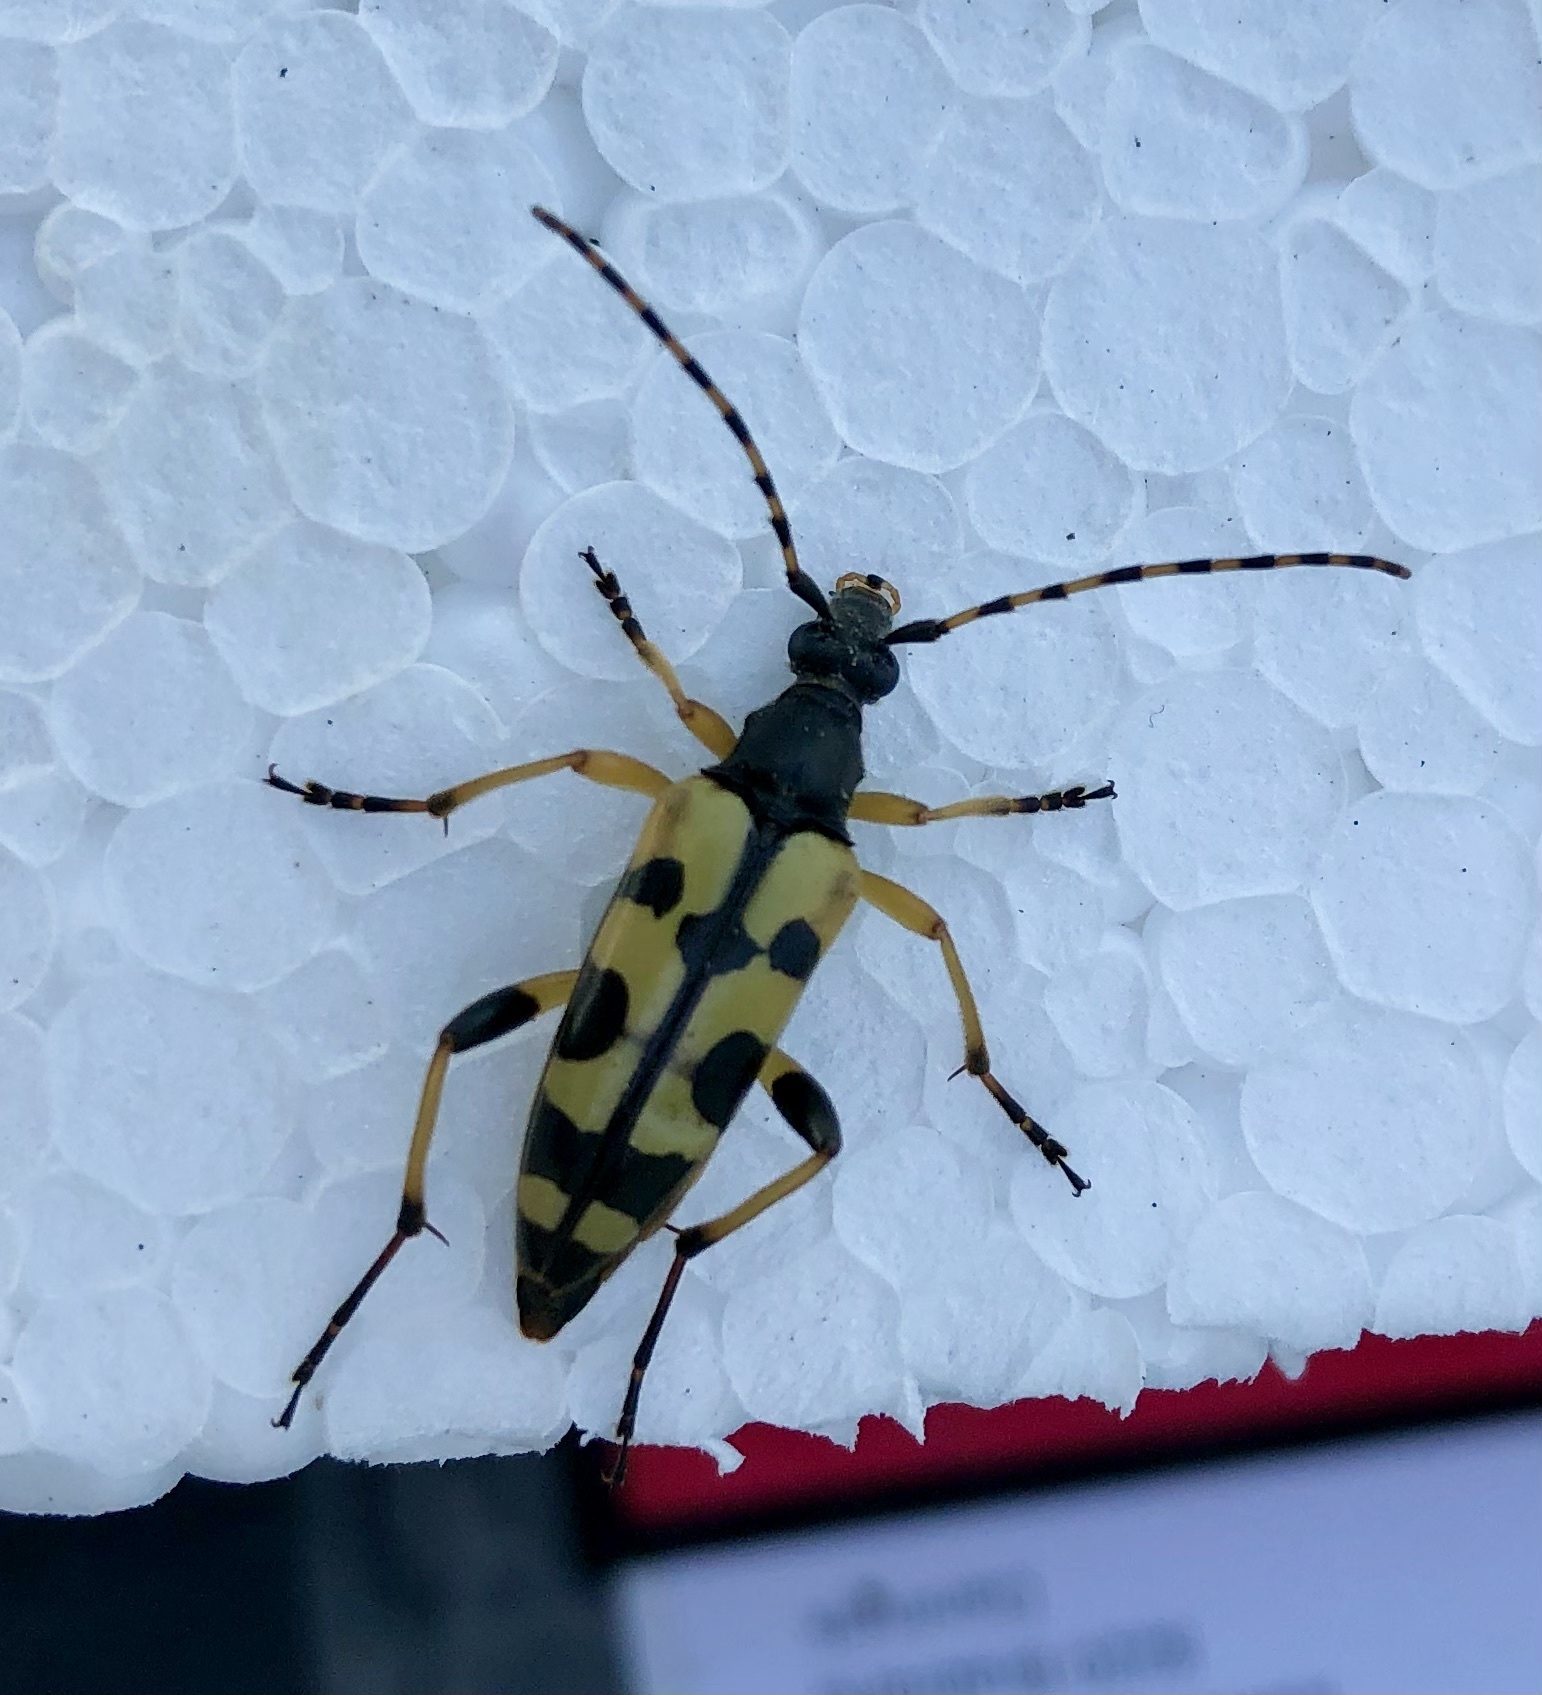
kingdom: Animalia
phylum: Arthropoda
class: Insecta
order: Coleoptera
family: Cerambycidae
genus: Rutpela
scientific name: Rutpela maculata
